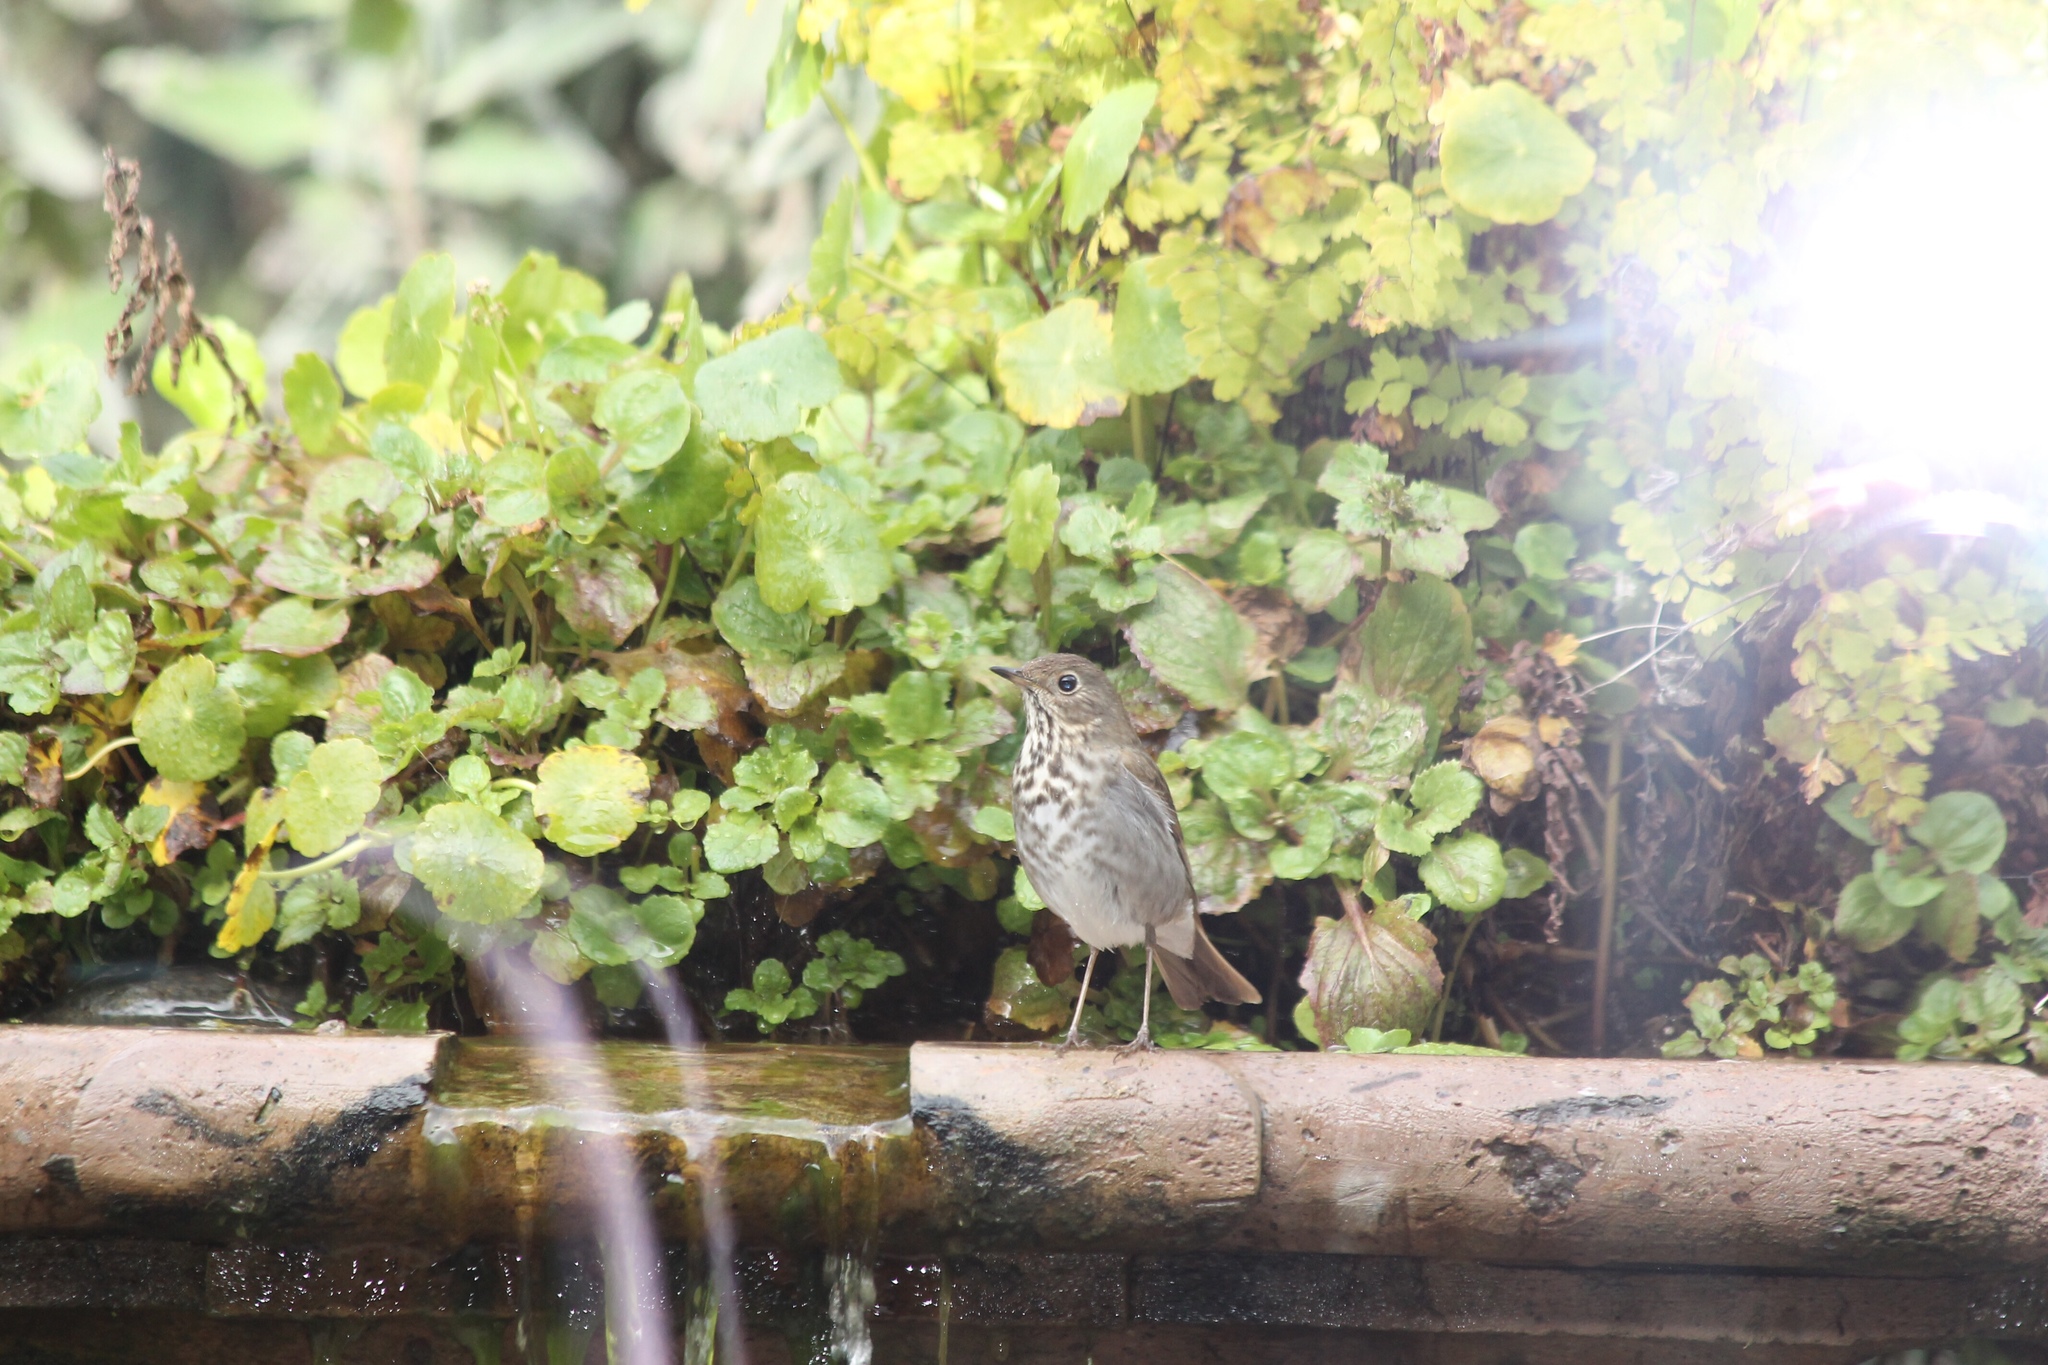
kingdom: Animalia
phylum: Chordata
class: Aves
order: Passeriformes
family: Turdidae
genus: Catharus
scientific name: Catharus guttatus
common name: Hermit thrush
